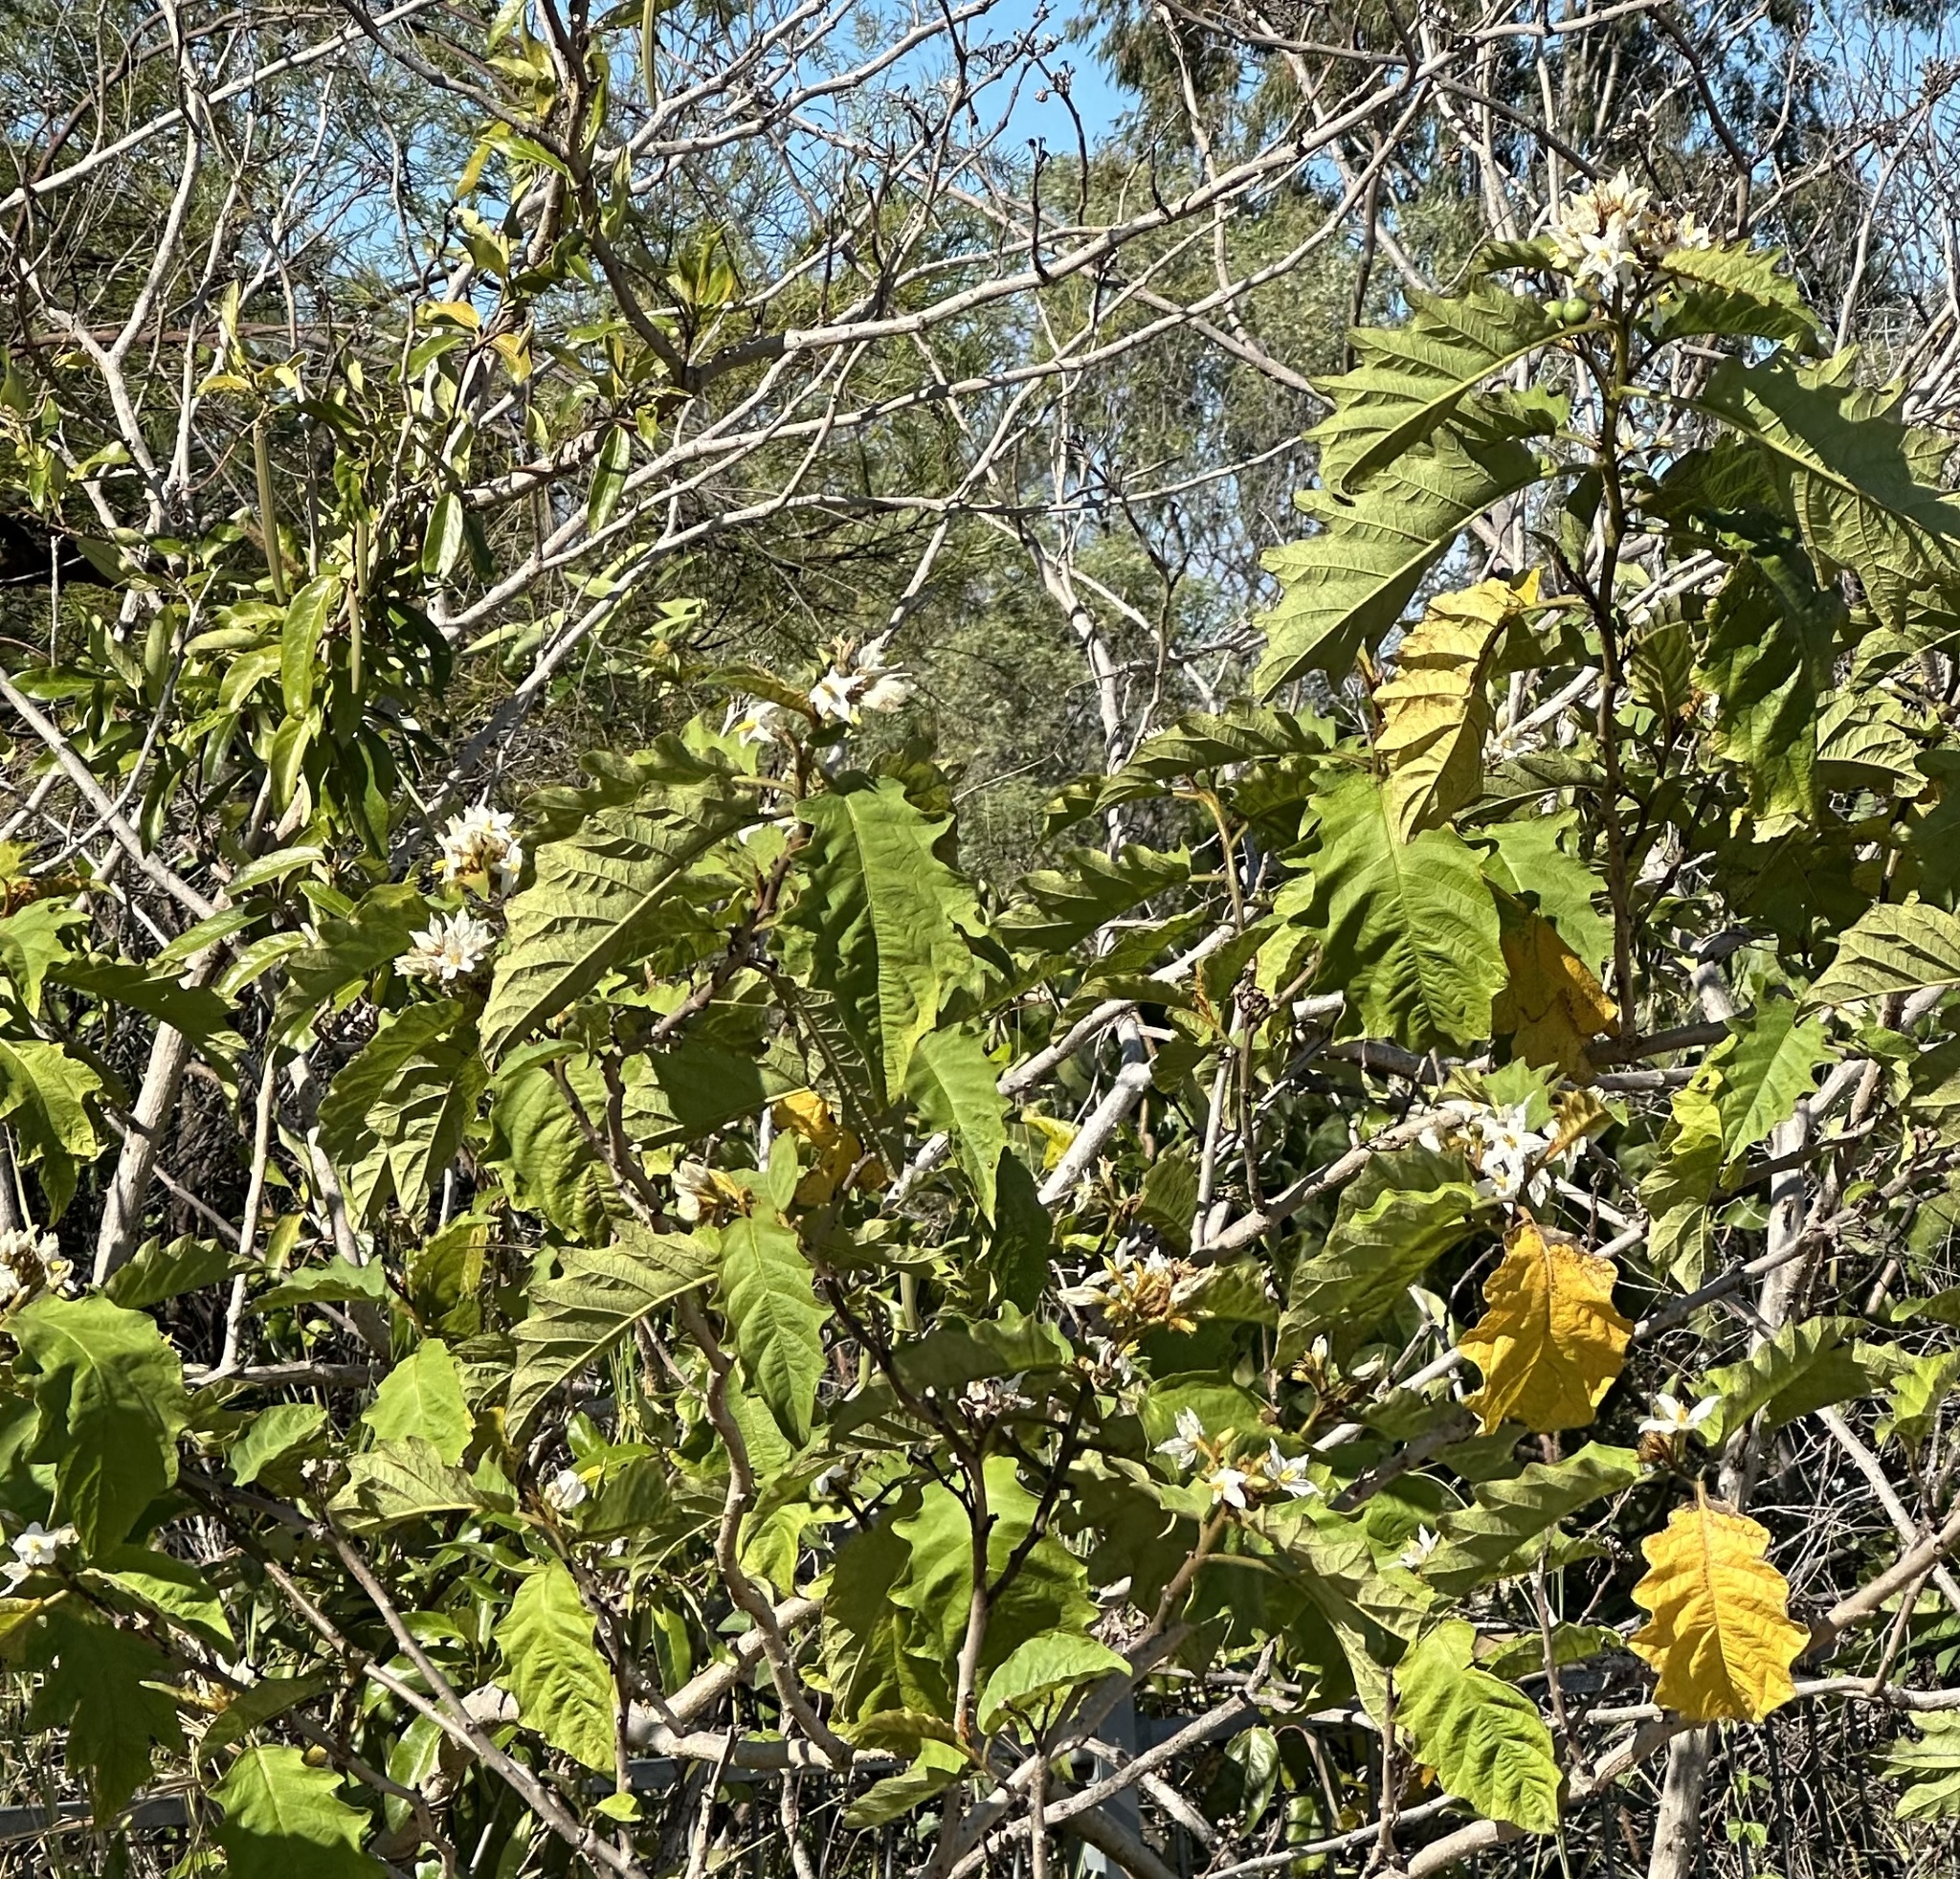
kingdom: Plantae
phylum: Tracheophyta
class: Magnoliopsida
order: Solanales
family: Solanaceae
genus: Solanum
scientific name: Solanum chrysotrichum
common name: Nightshade
